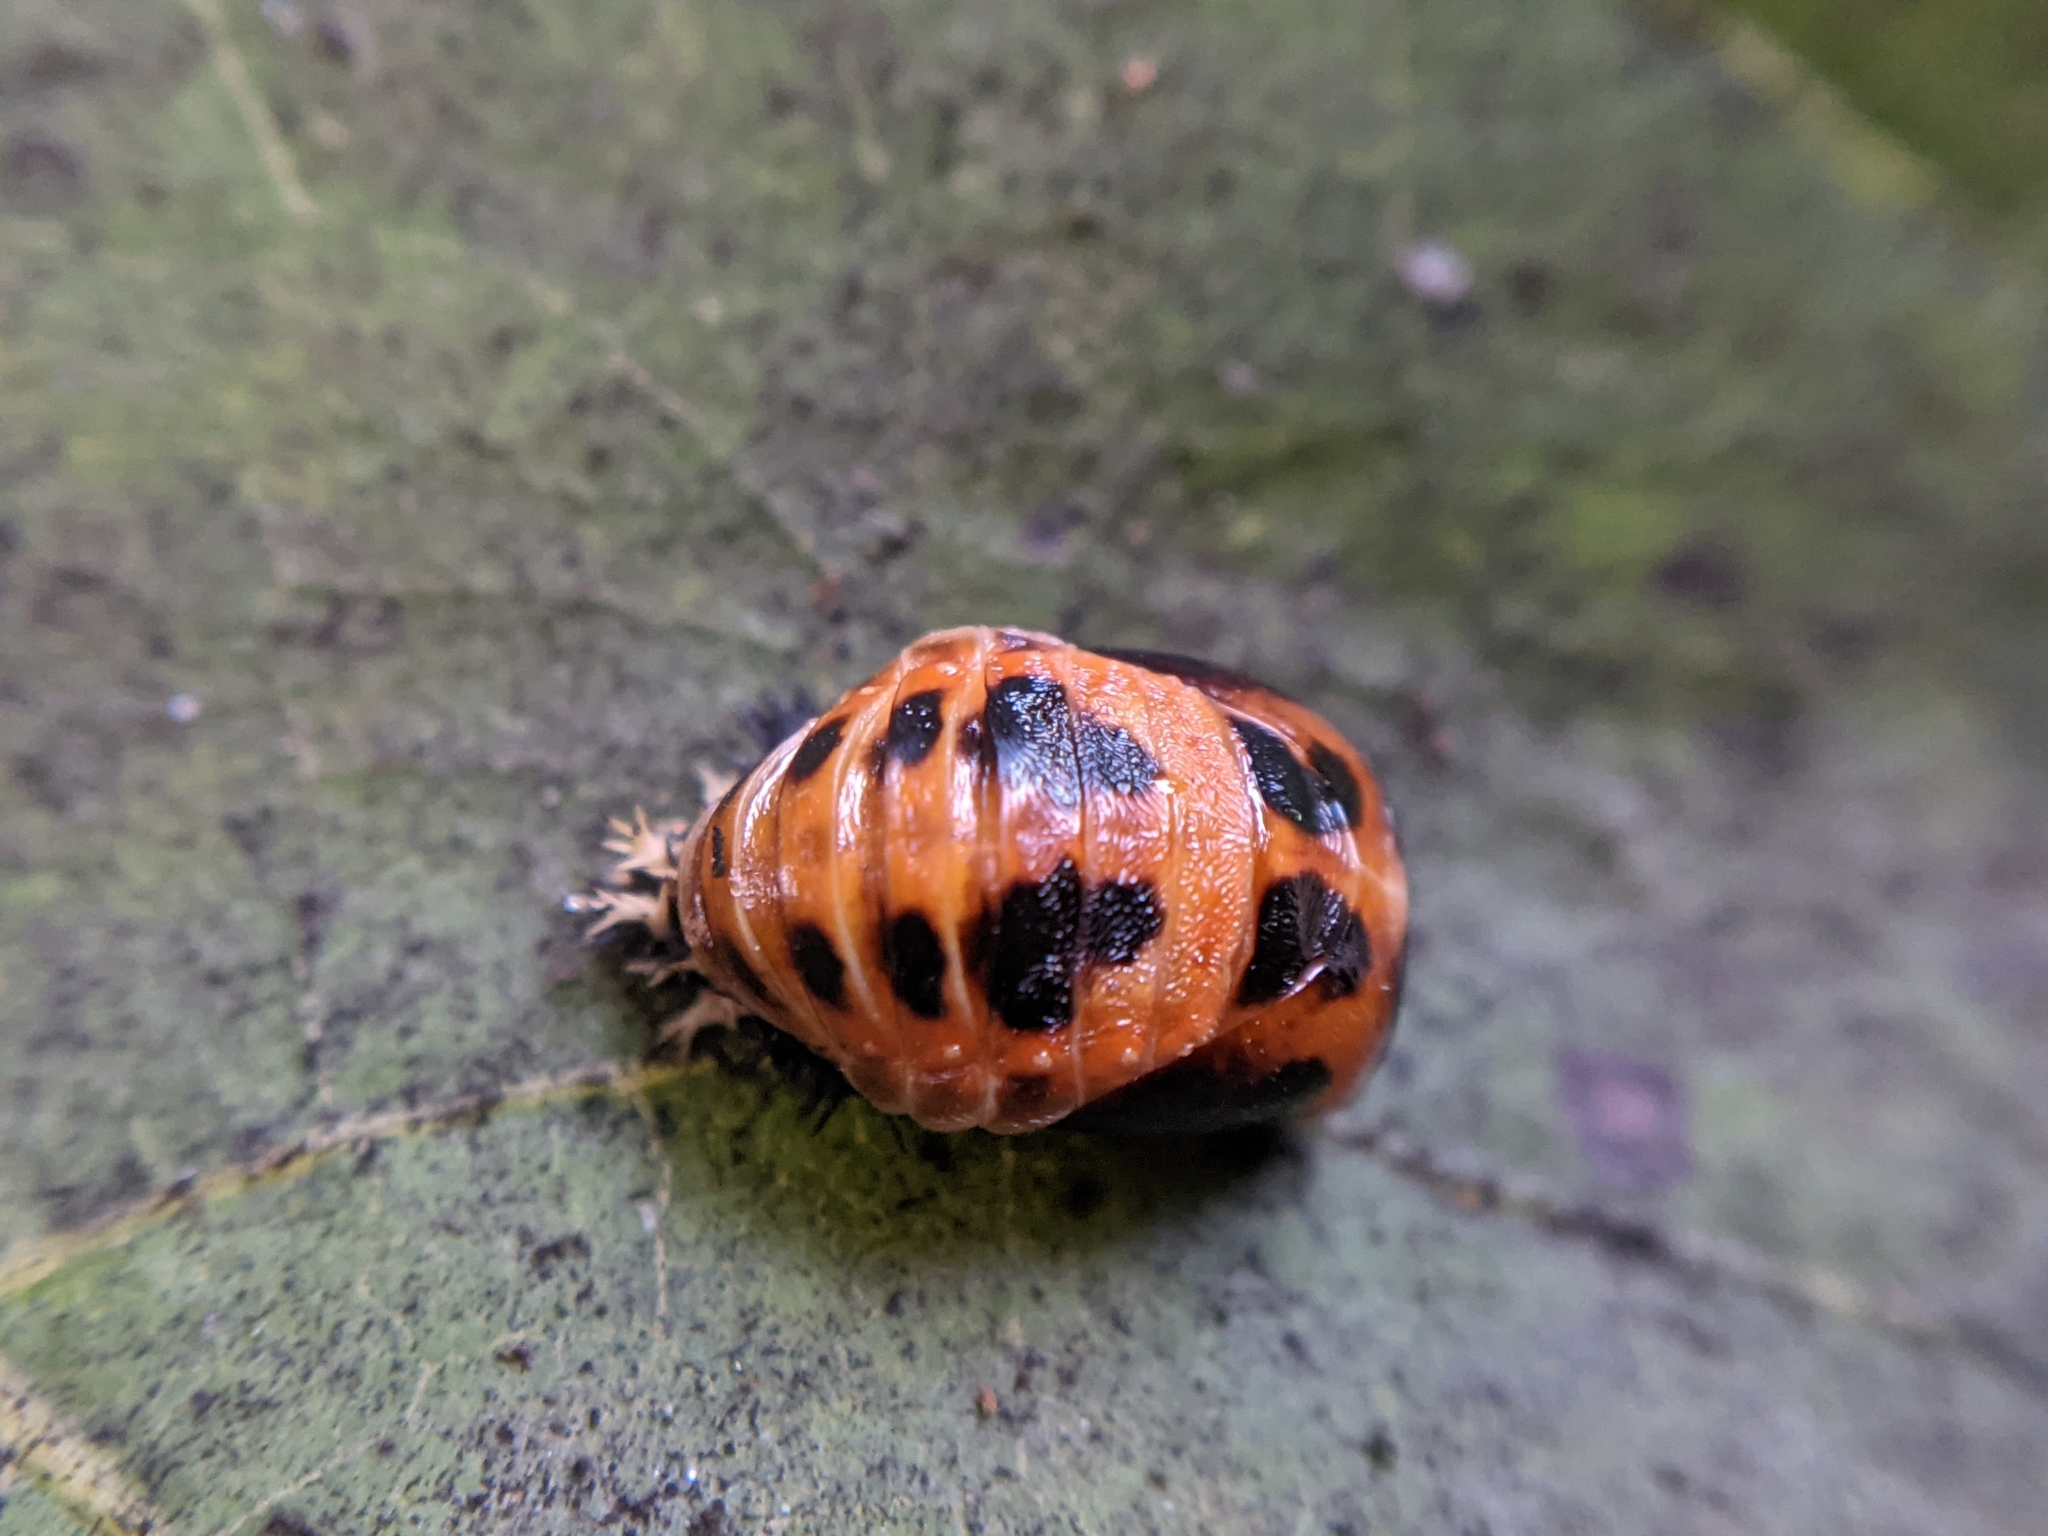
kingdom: Animalia
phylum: Arthropoda
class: Insecta
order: Coleoptera
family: Coccinellidae
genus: Harmonia
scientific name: Harmonia axyridis
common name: Harlequin ladybird
